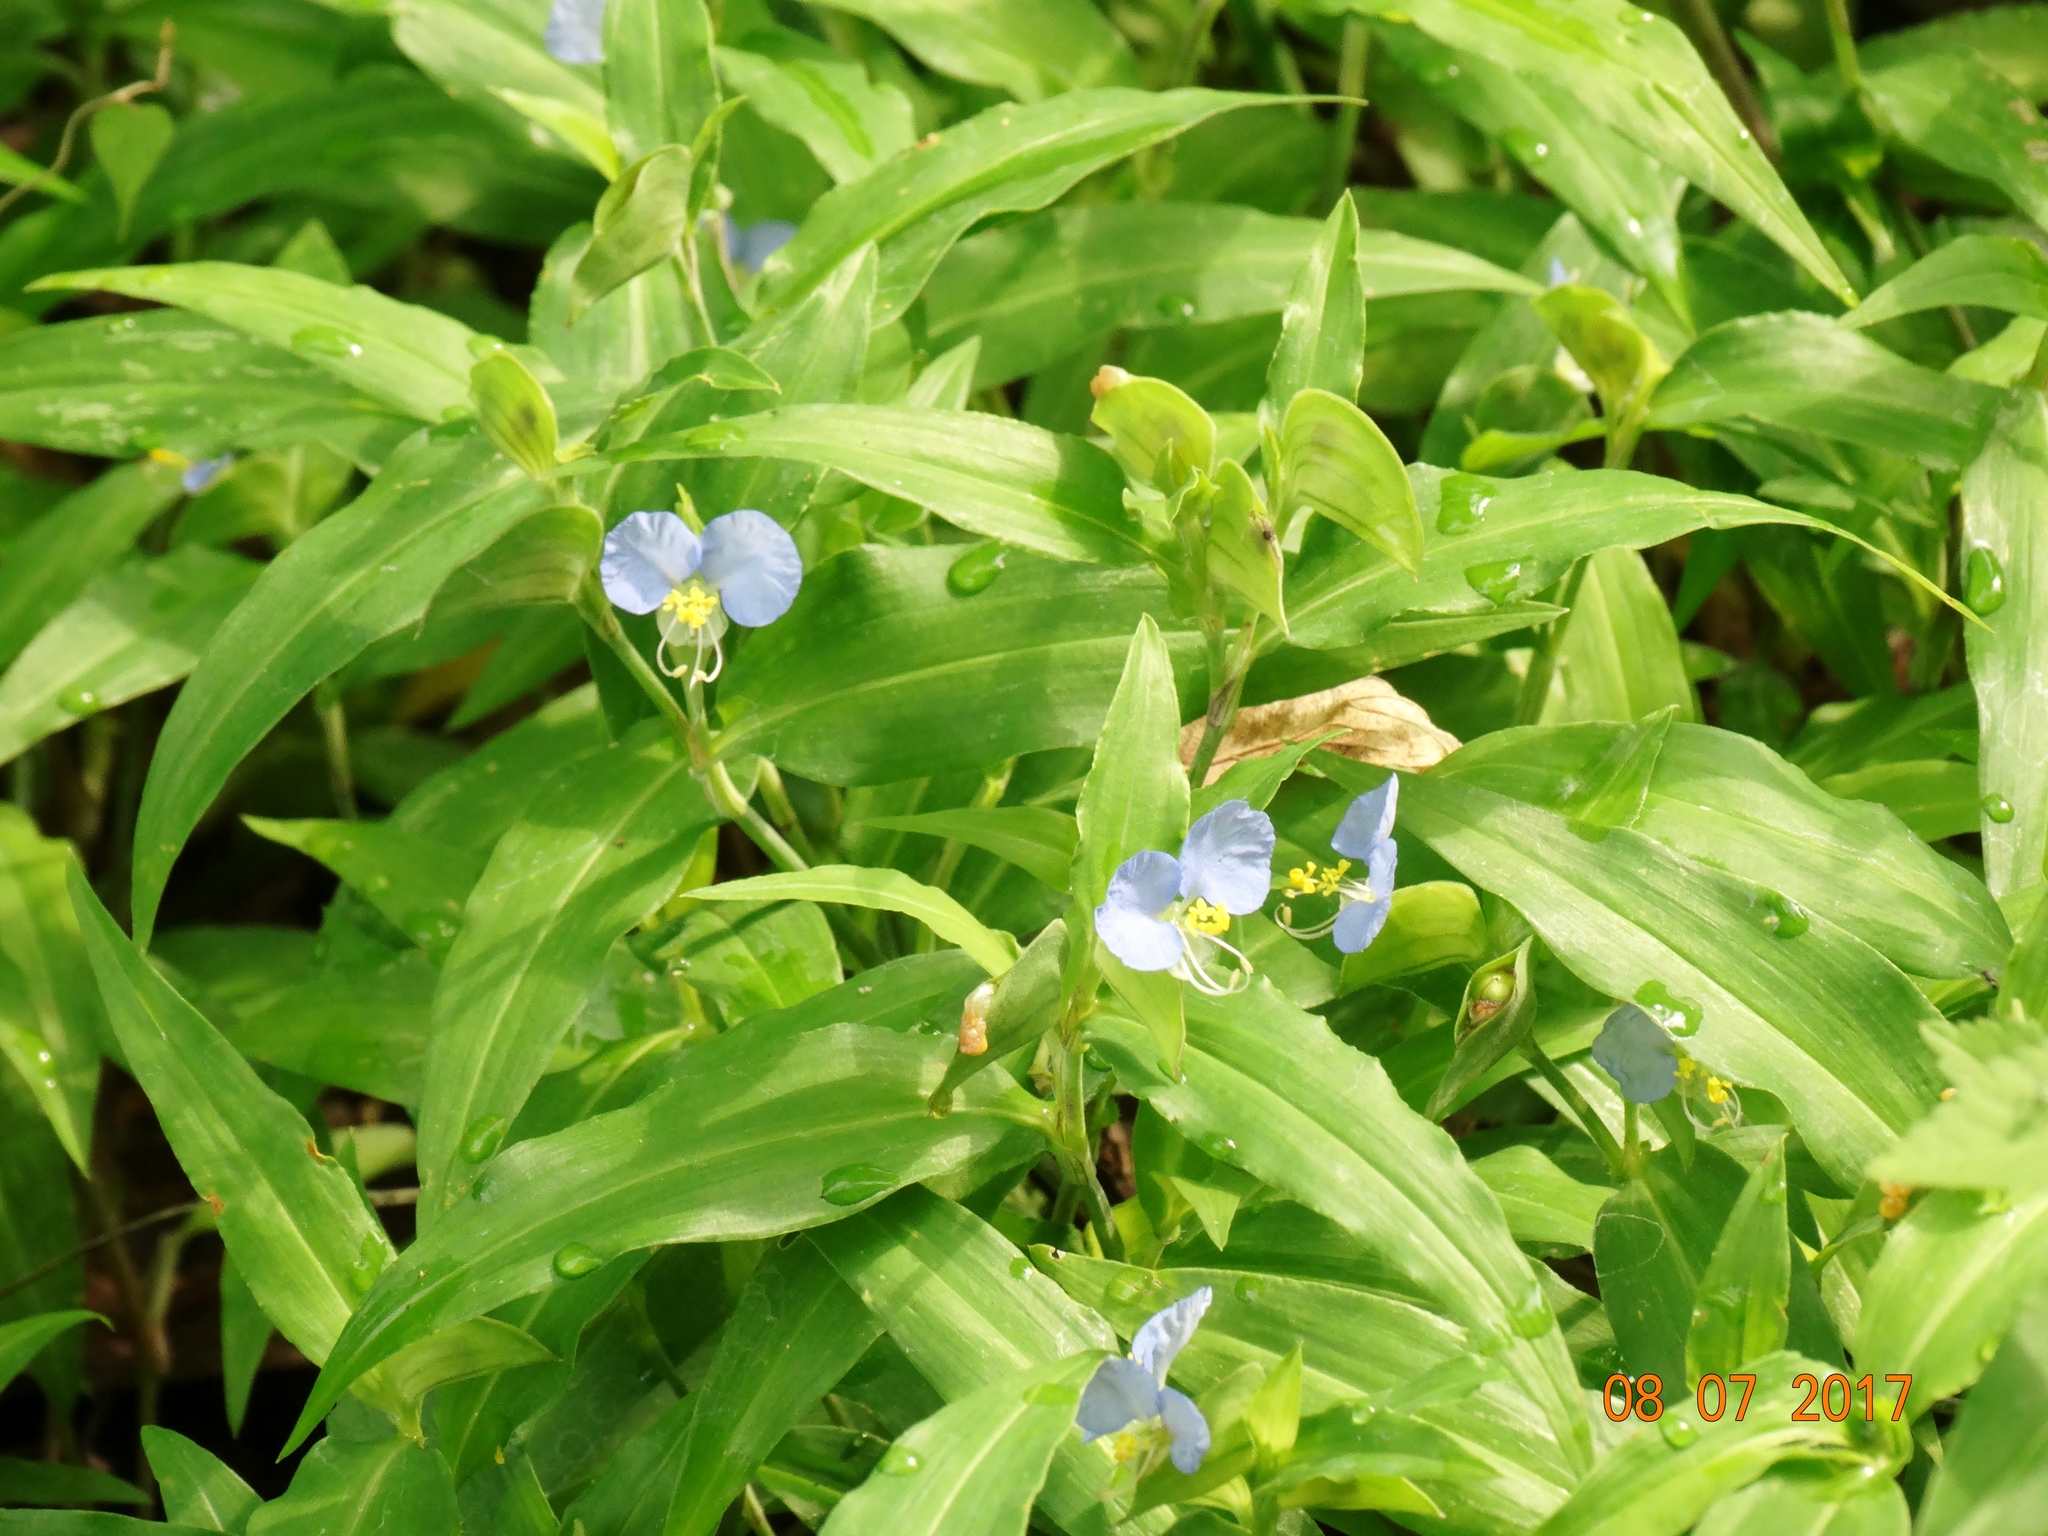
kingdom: Plantae
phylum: Tracheophyta
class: Liliopsida
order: Commelinales
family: Commelinaceae
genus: Commelina
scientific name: Commelina erecta
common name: Blousel blommetjie
